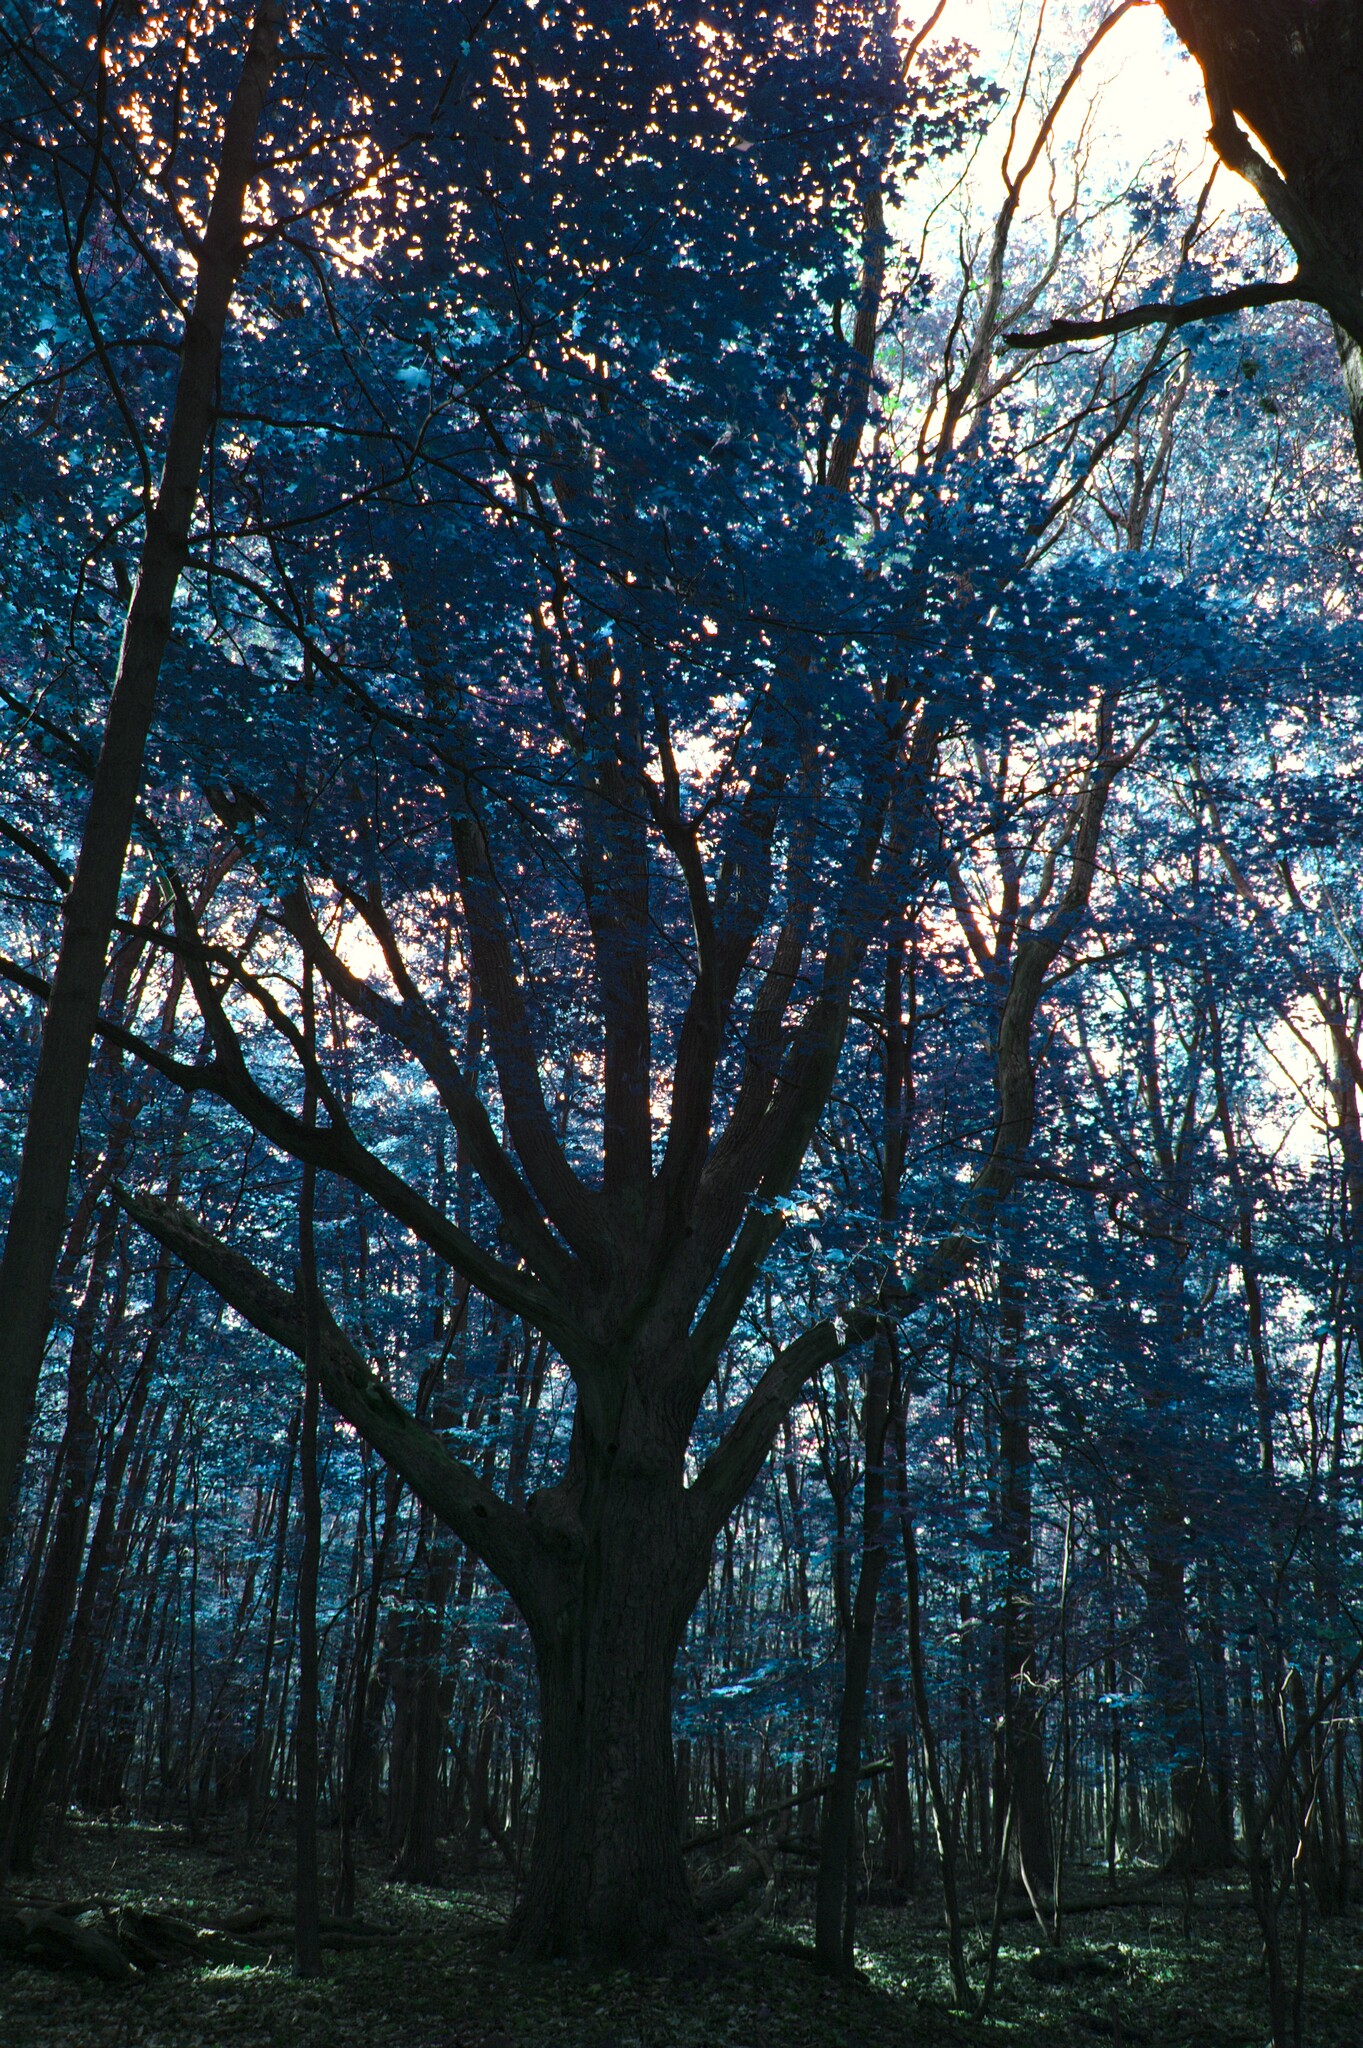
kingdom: Plantae
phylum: Tracheophyta
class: Magnoliopsida
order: Fagales
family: Fagaceae
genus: Quercus
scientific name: Quercus macrocarpa
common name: Bur oak
